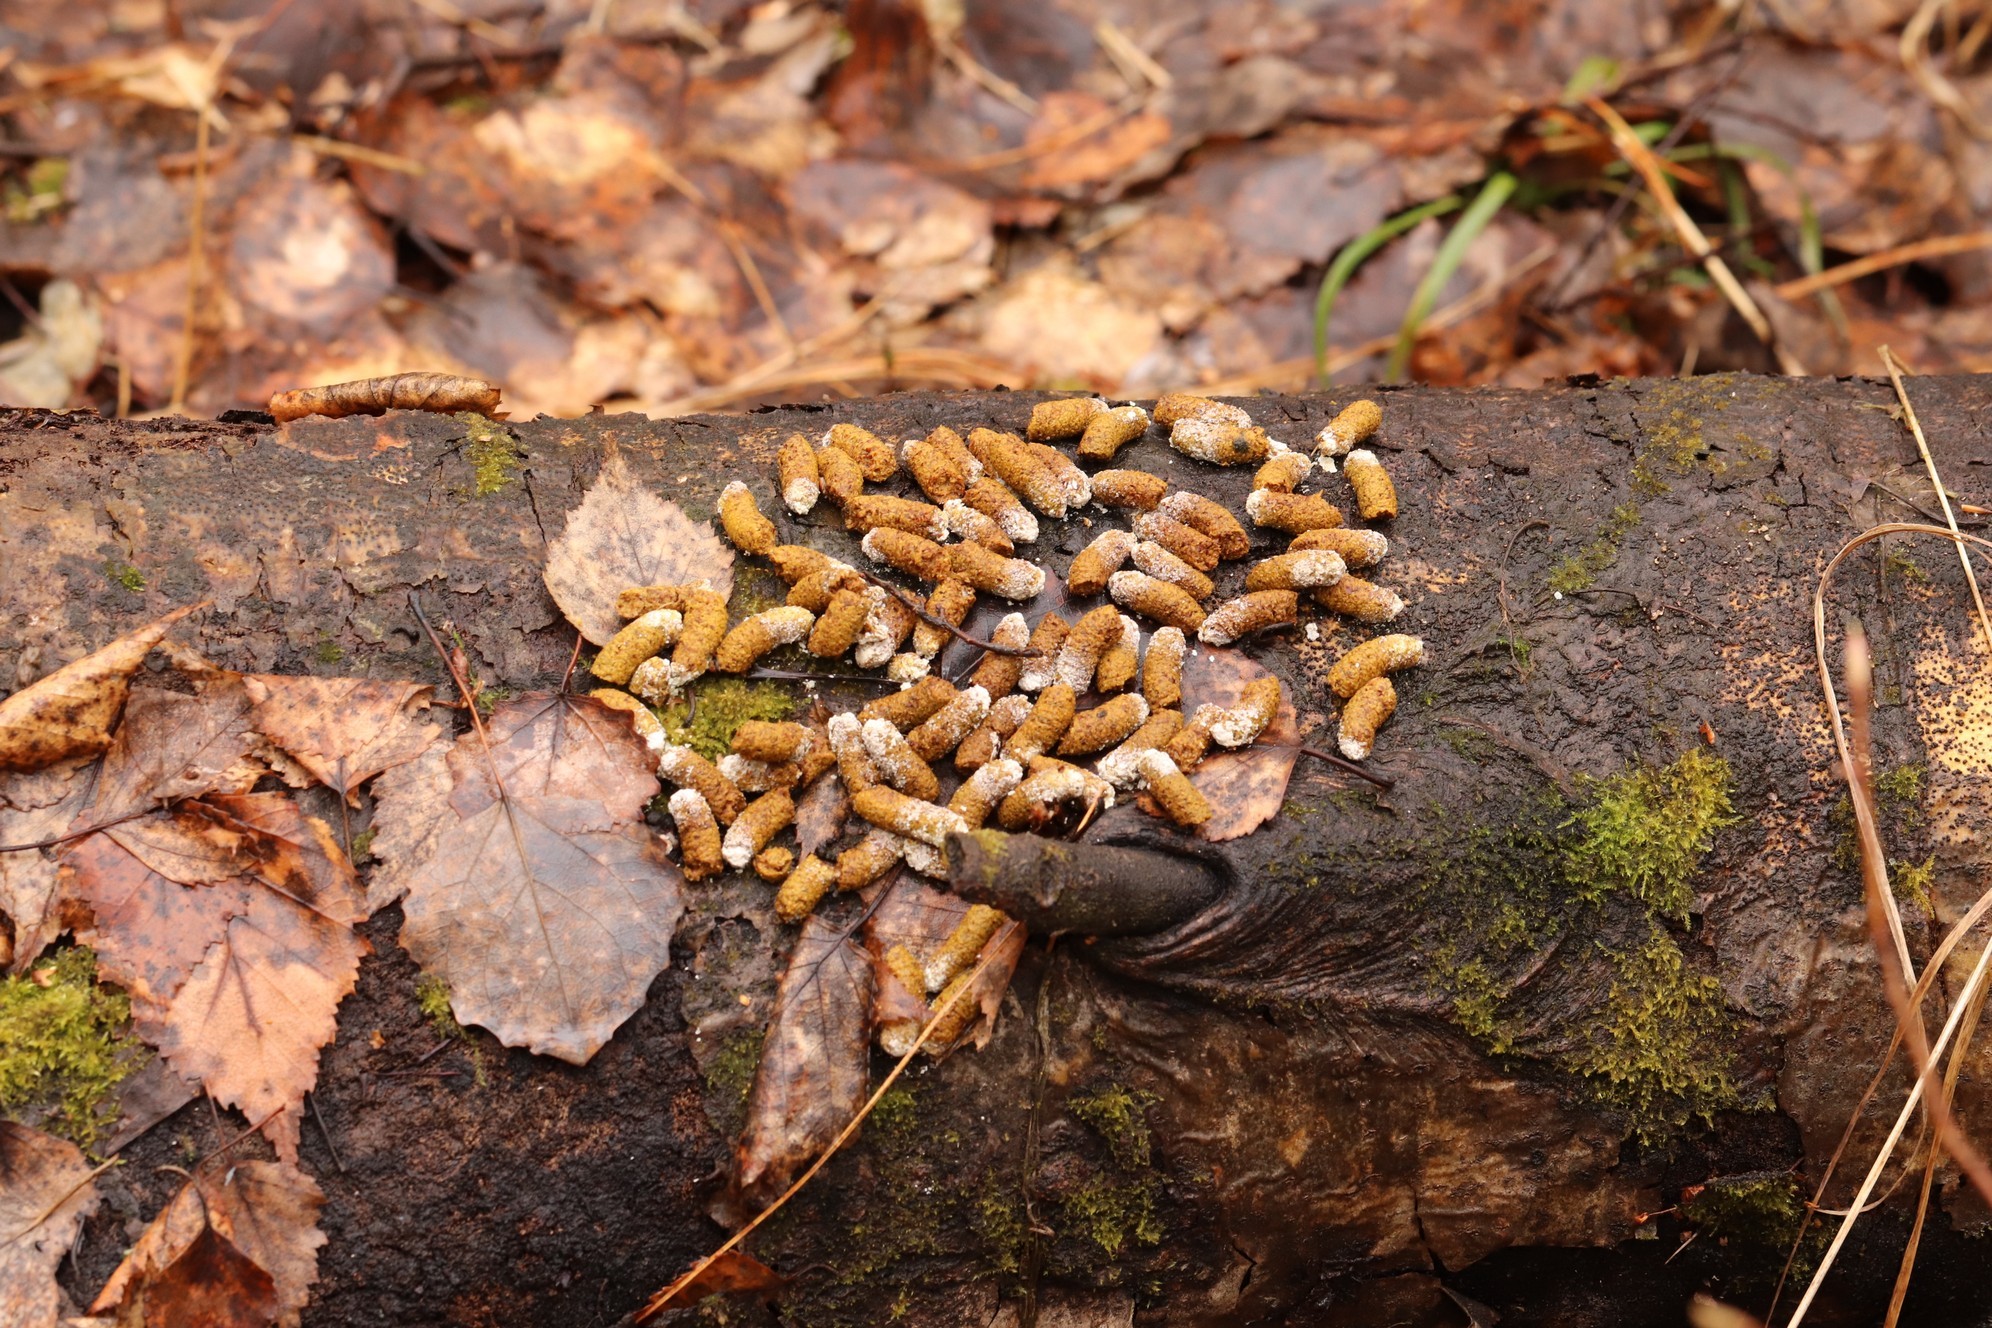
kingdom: Animalia
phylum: Chordata
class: Aves
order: Galliformes
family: Phasianidae
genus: Tetrastes
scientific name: Tetrastes bonasia
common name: Hazel grouse
